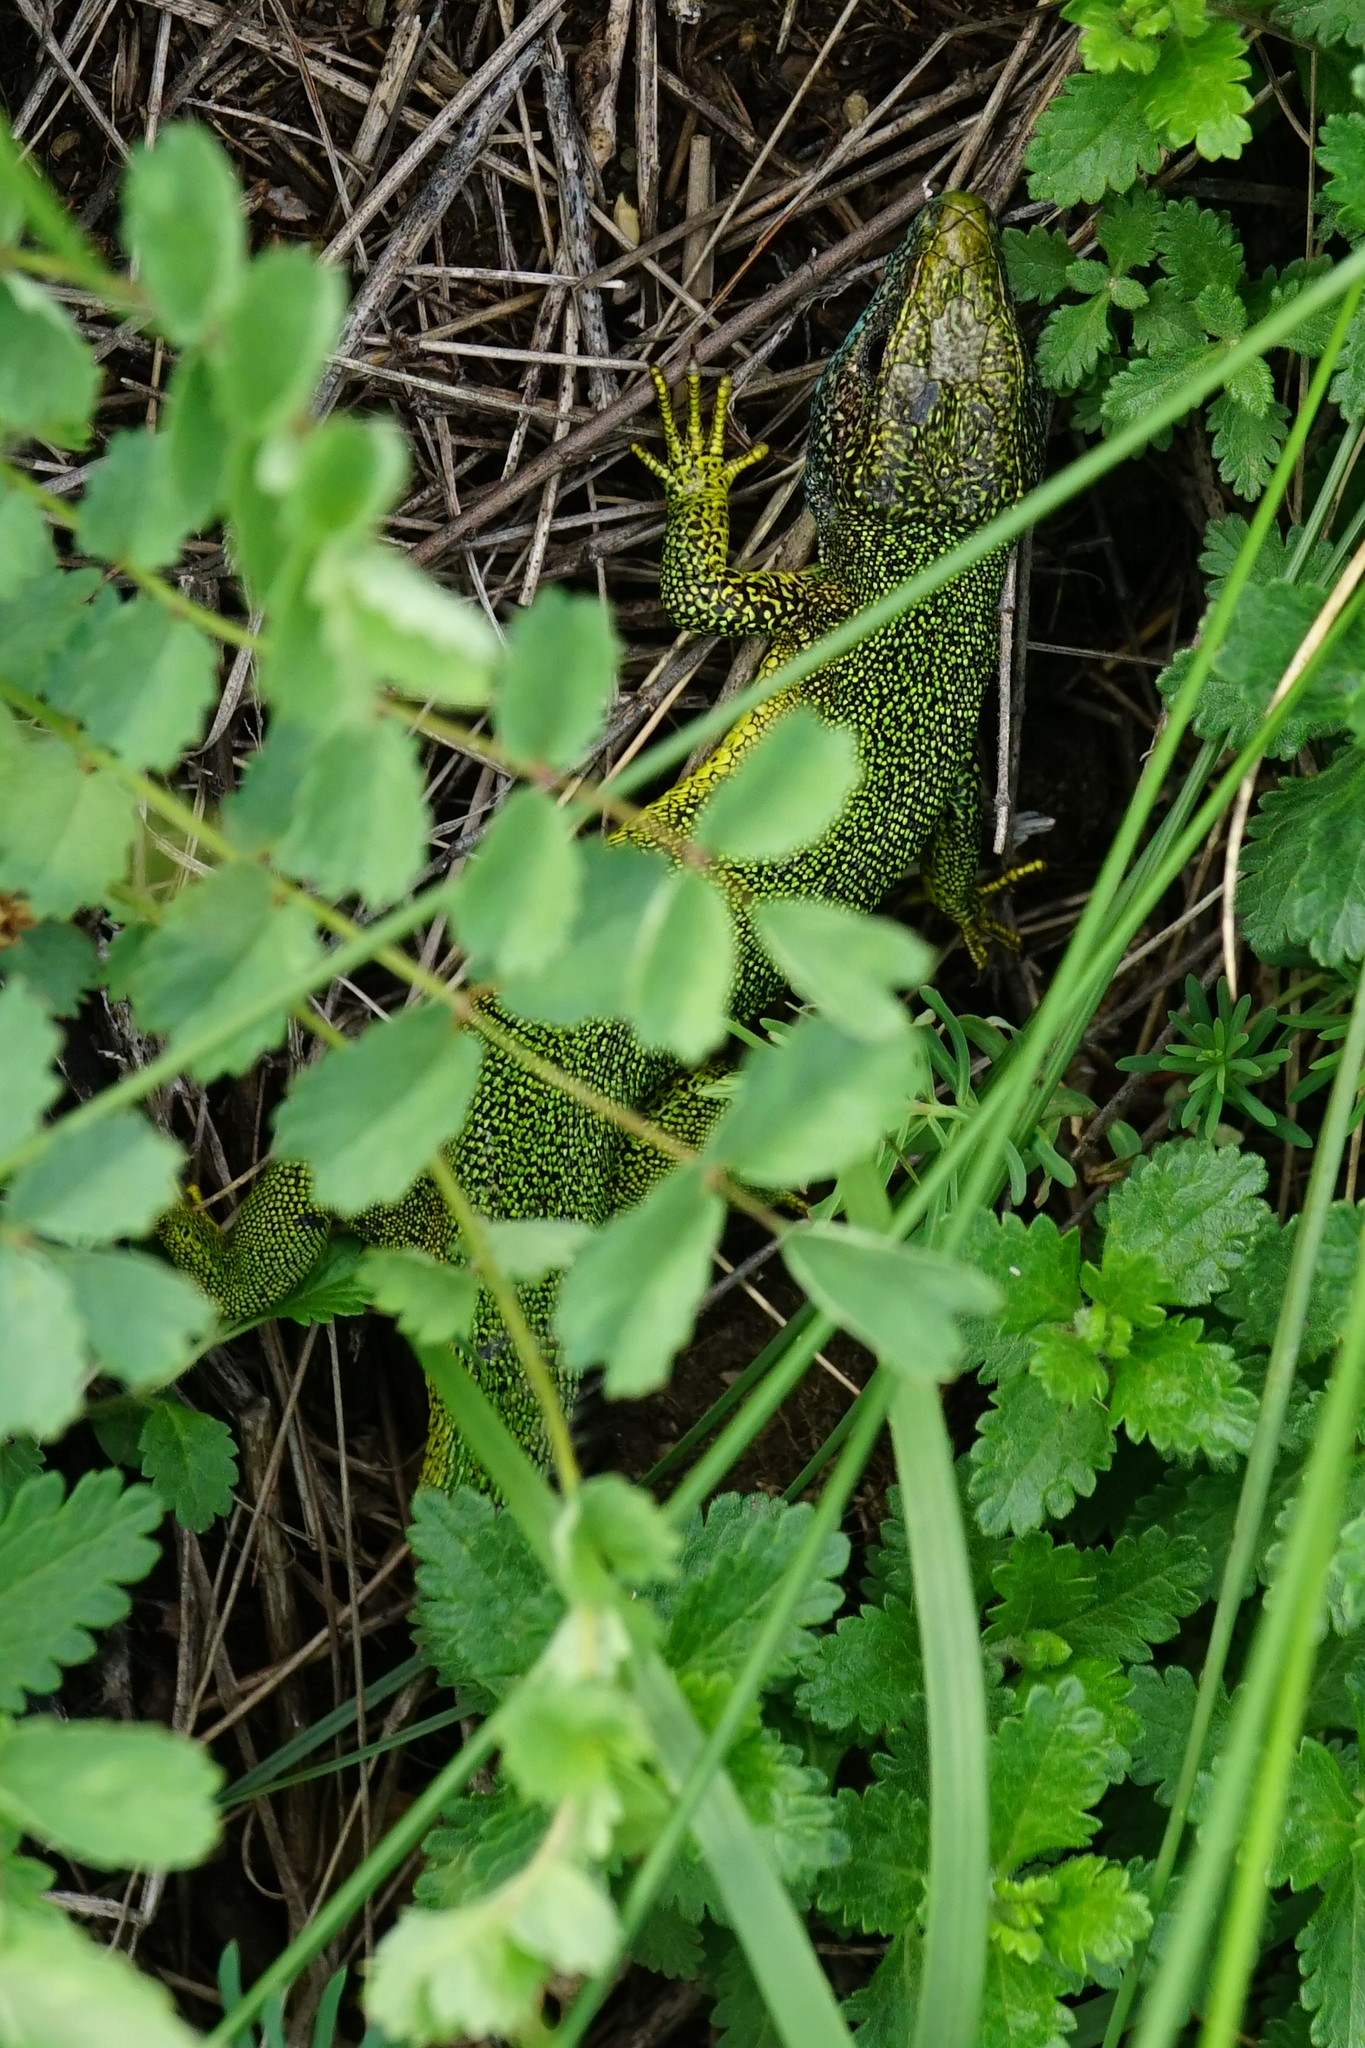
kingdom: Animalia
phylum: Chordata
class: Squamata
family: Lacertidae
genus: Lacerta
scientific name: Lacerta viridis
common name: European green lizard
